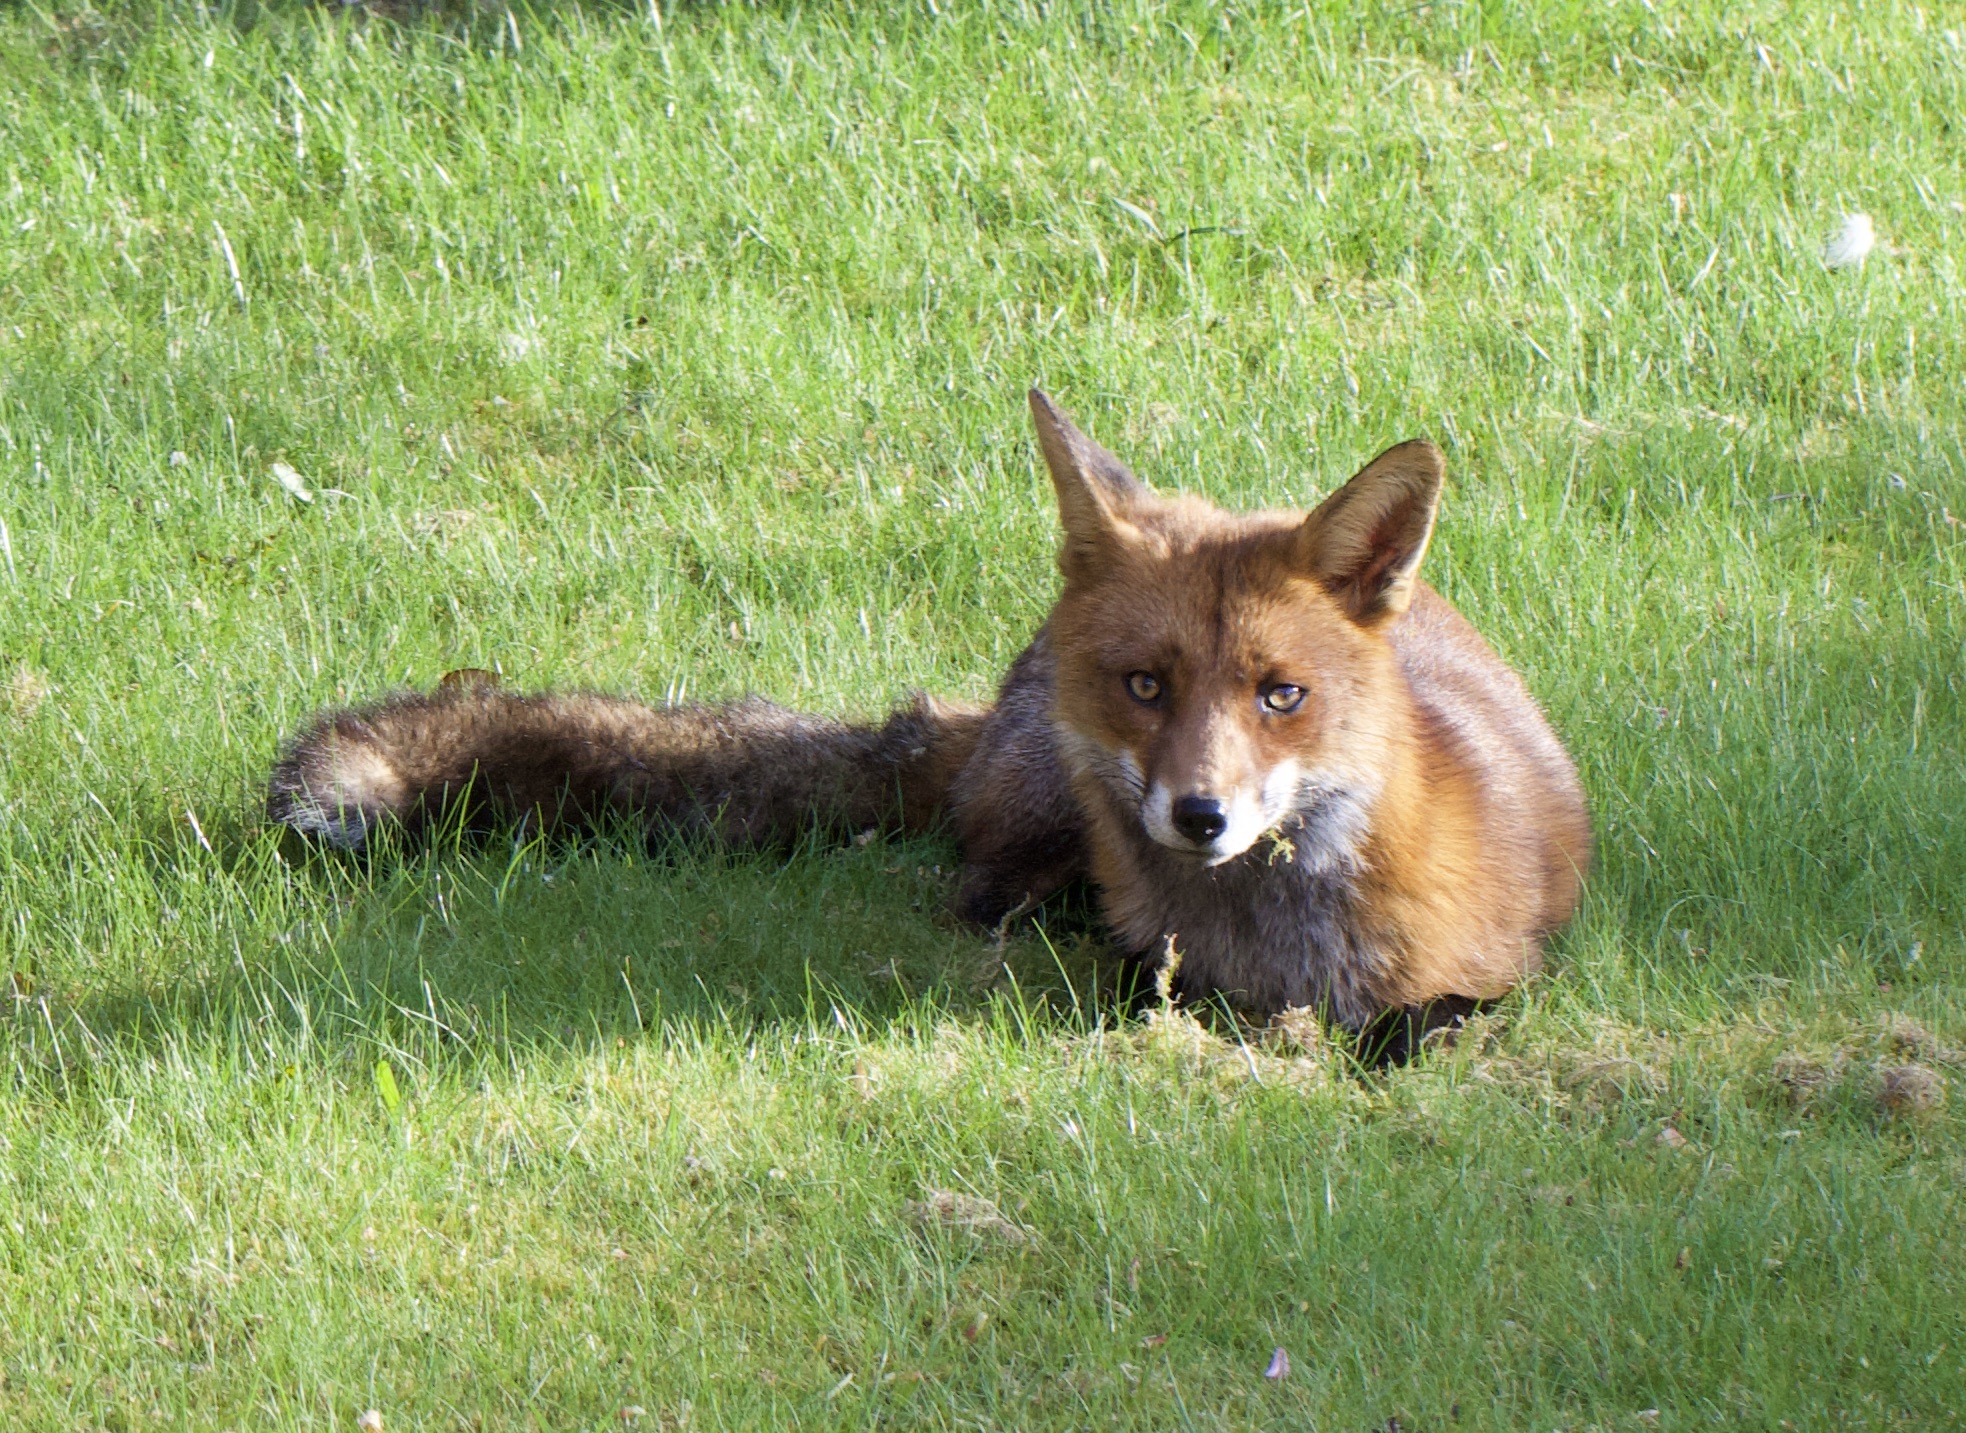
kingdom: Animalia
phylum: Chordata
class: Mammalia
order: Carnivora
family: Canidae
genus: Vulpes
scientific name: Vulpes vulpes
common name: Red fox
